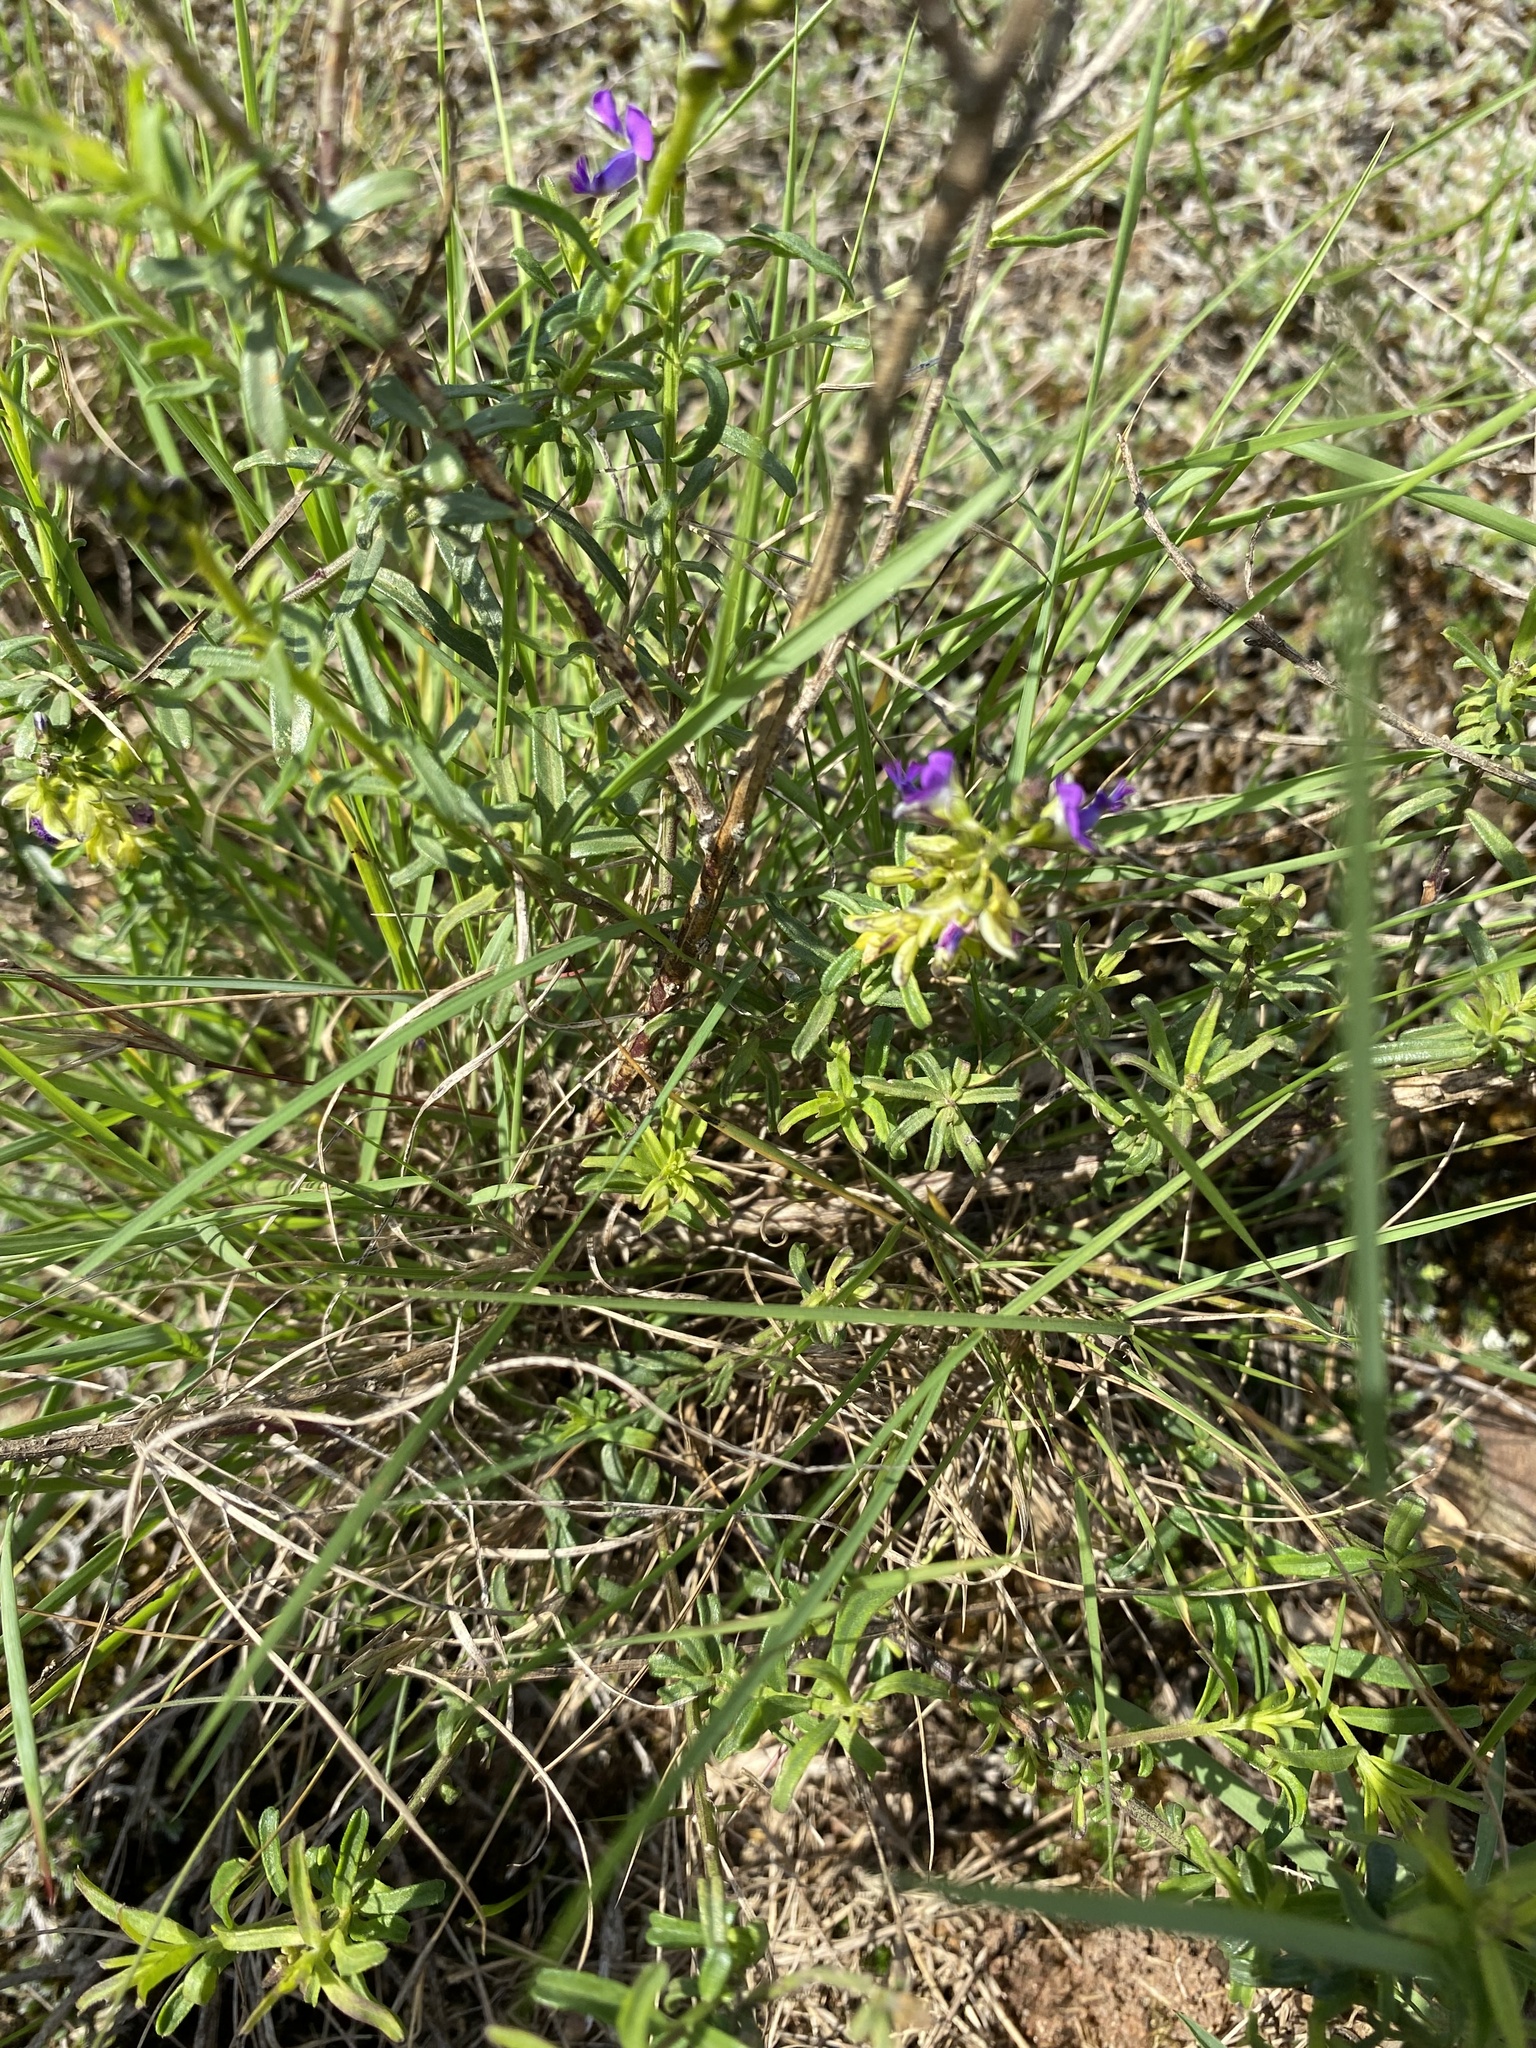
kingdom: Plantae
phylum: Tracheophyta
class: Magnoliopsida
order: Fabales
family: Polygalaceae
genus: Polygala
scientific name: Polygala uncinata
